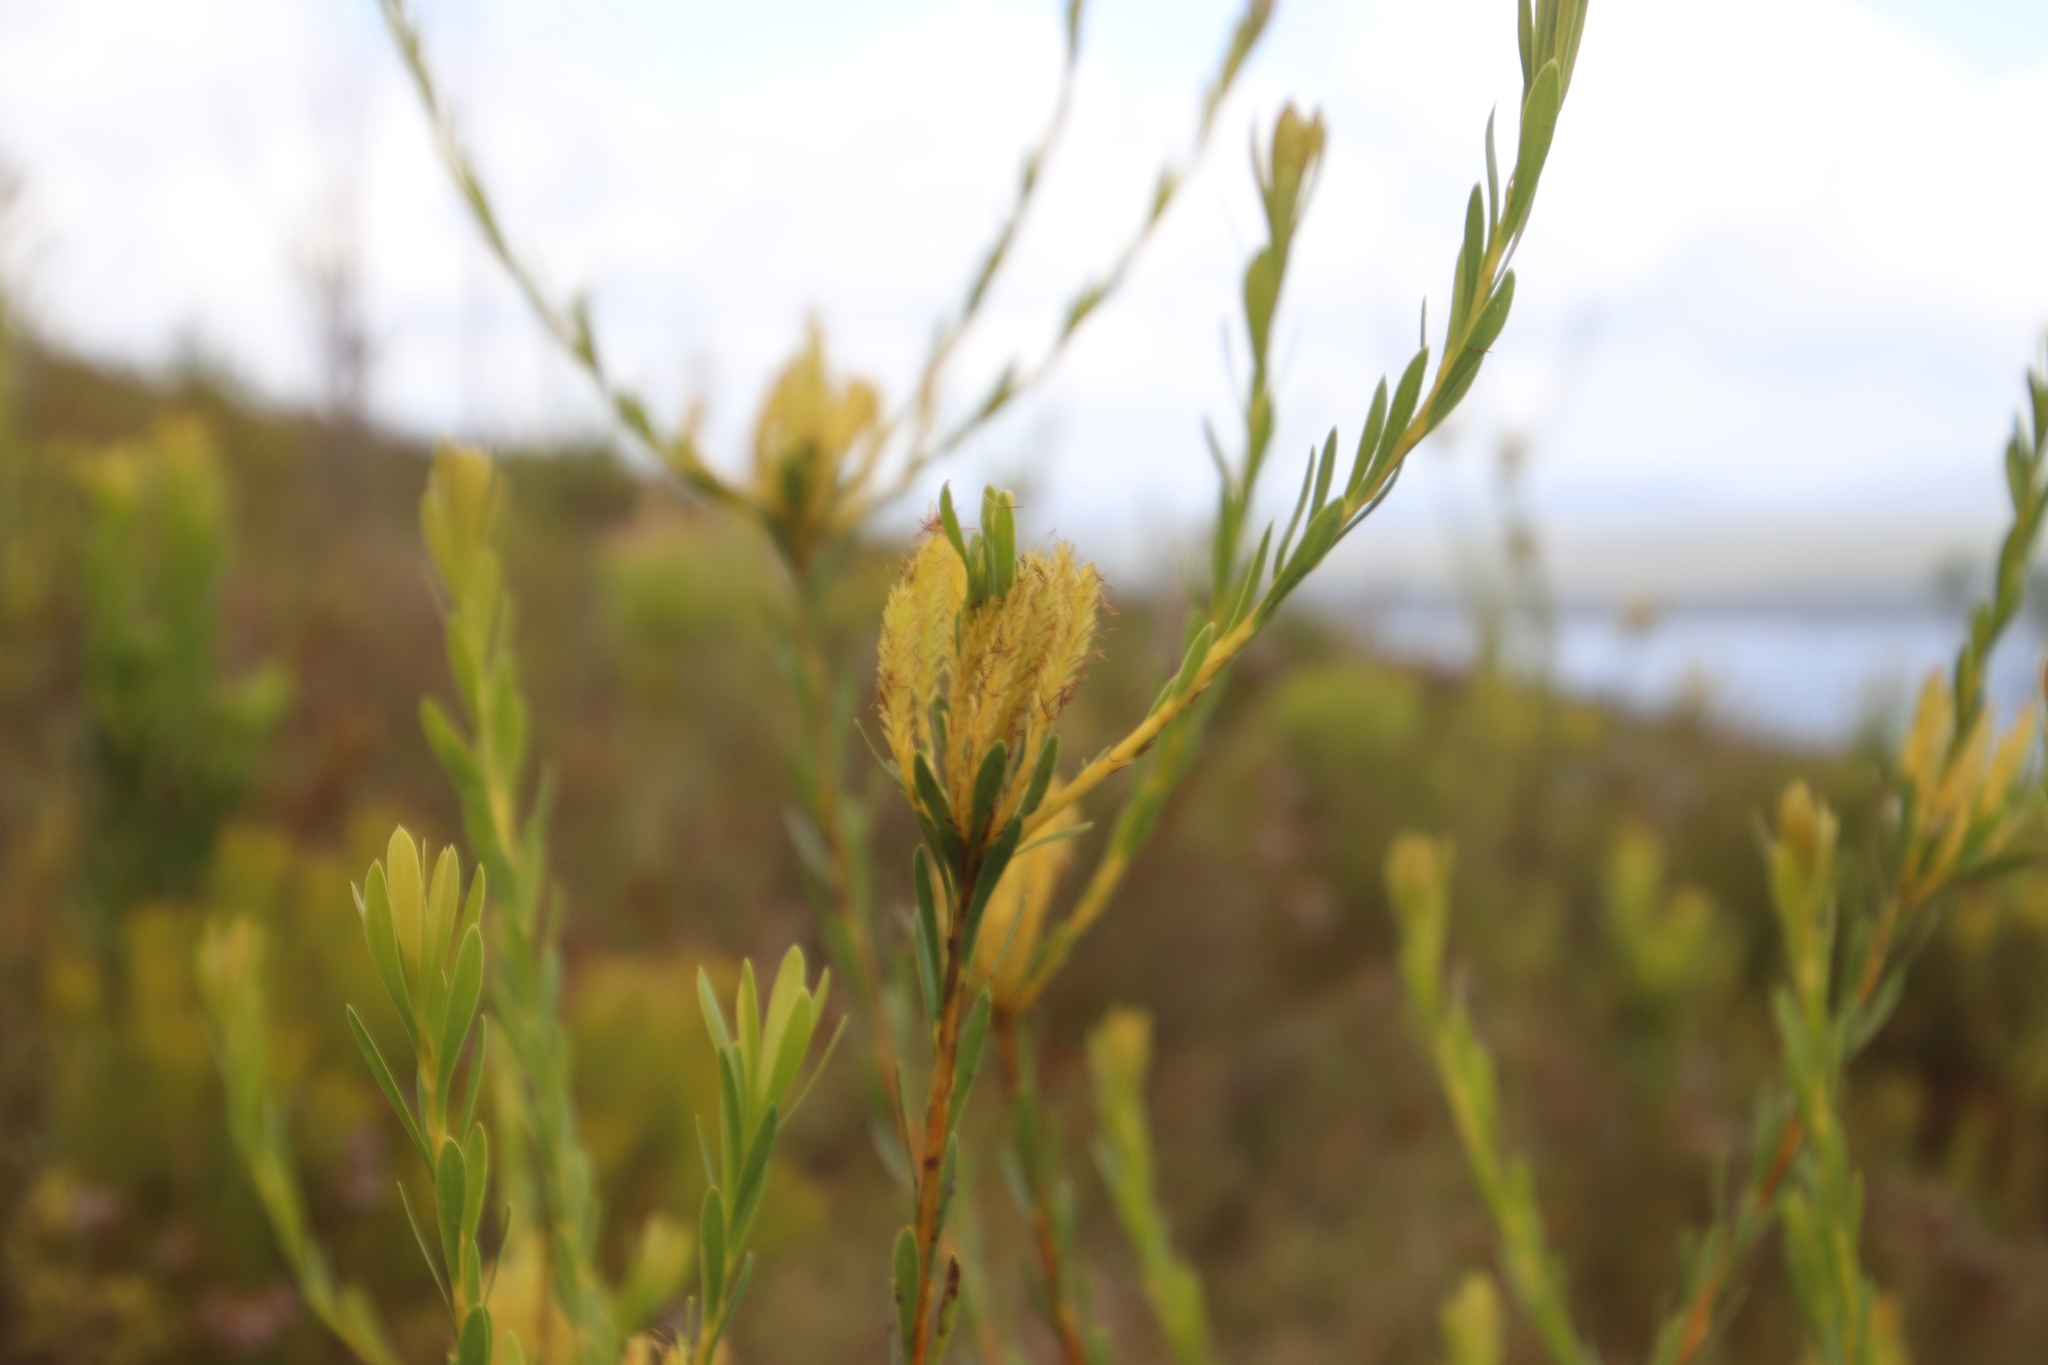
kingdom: Plantae
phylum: Tracheophyta
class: Magnoliopsida
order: Proteales
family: Proteaceae
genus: Aulax
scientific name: Aulax umbellata
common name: Broad-leaf featherbush
